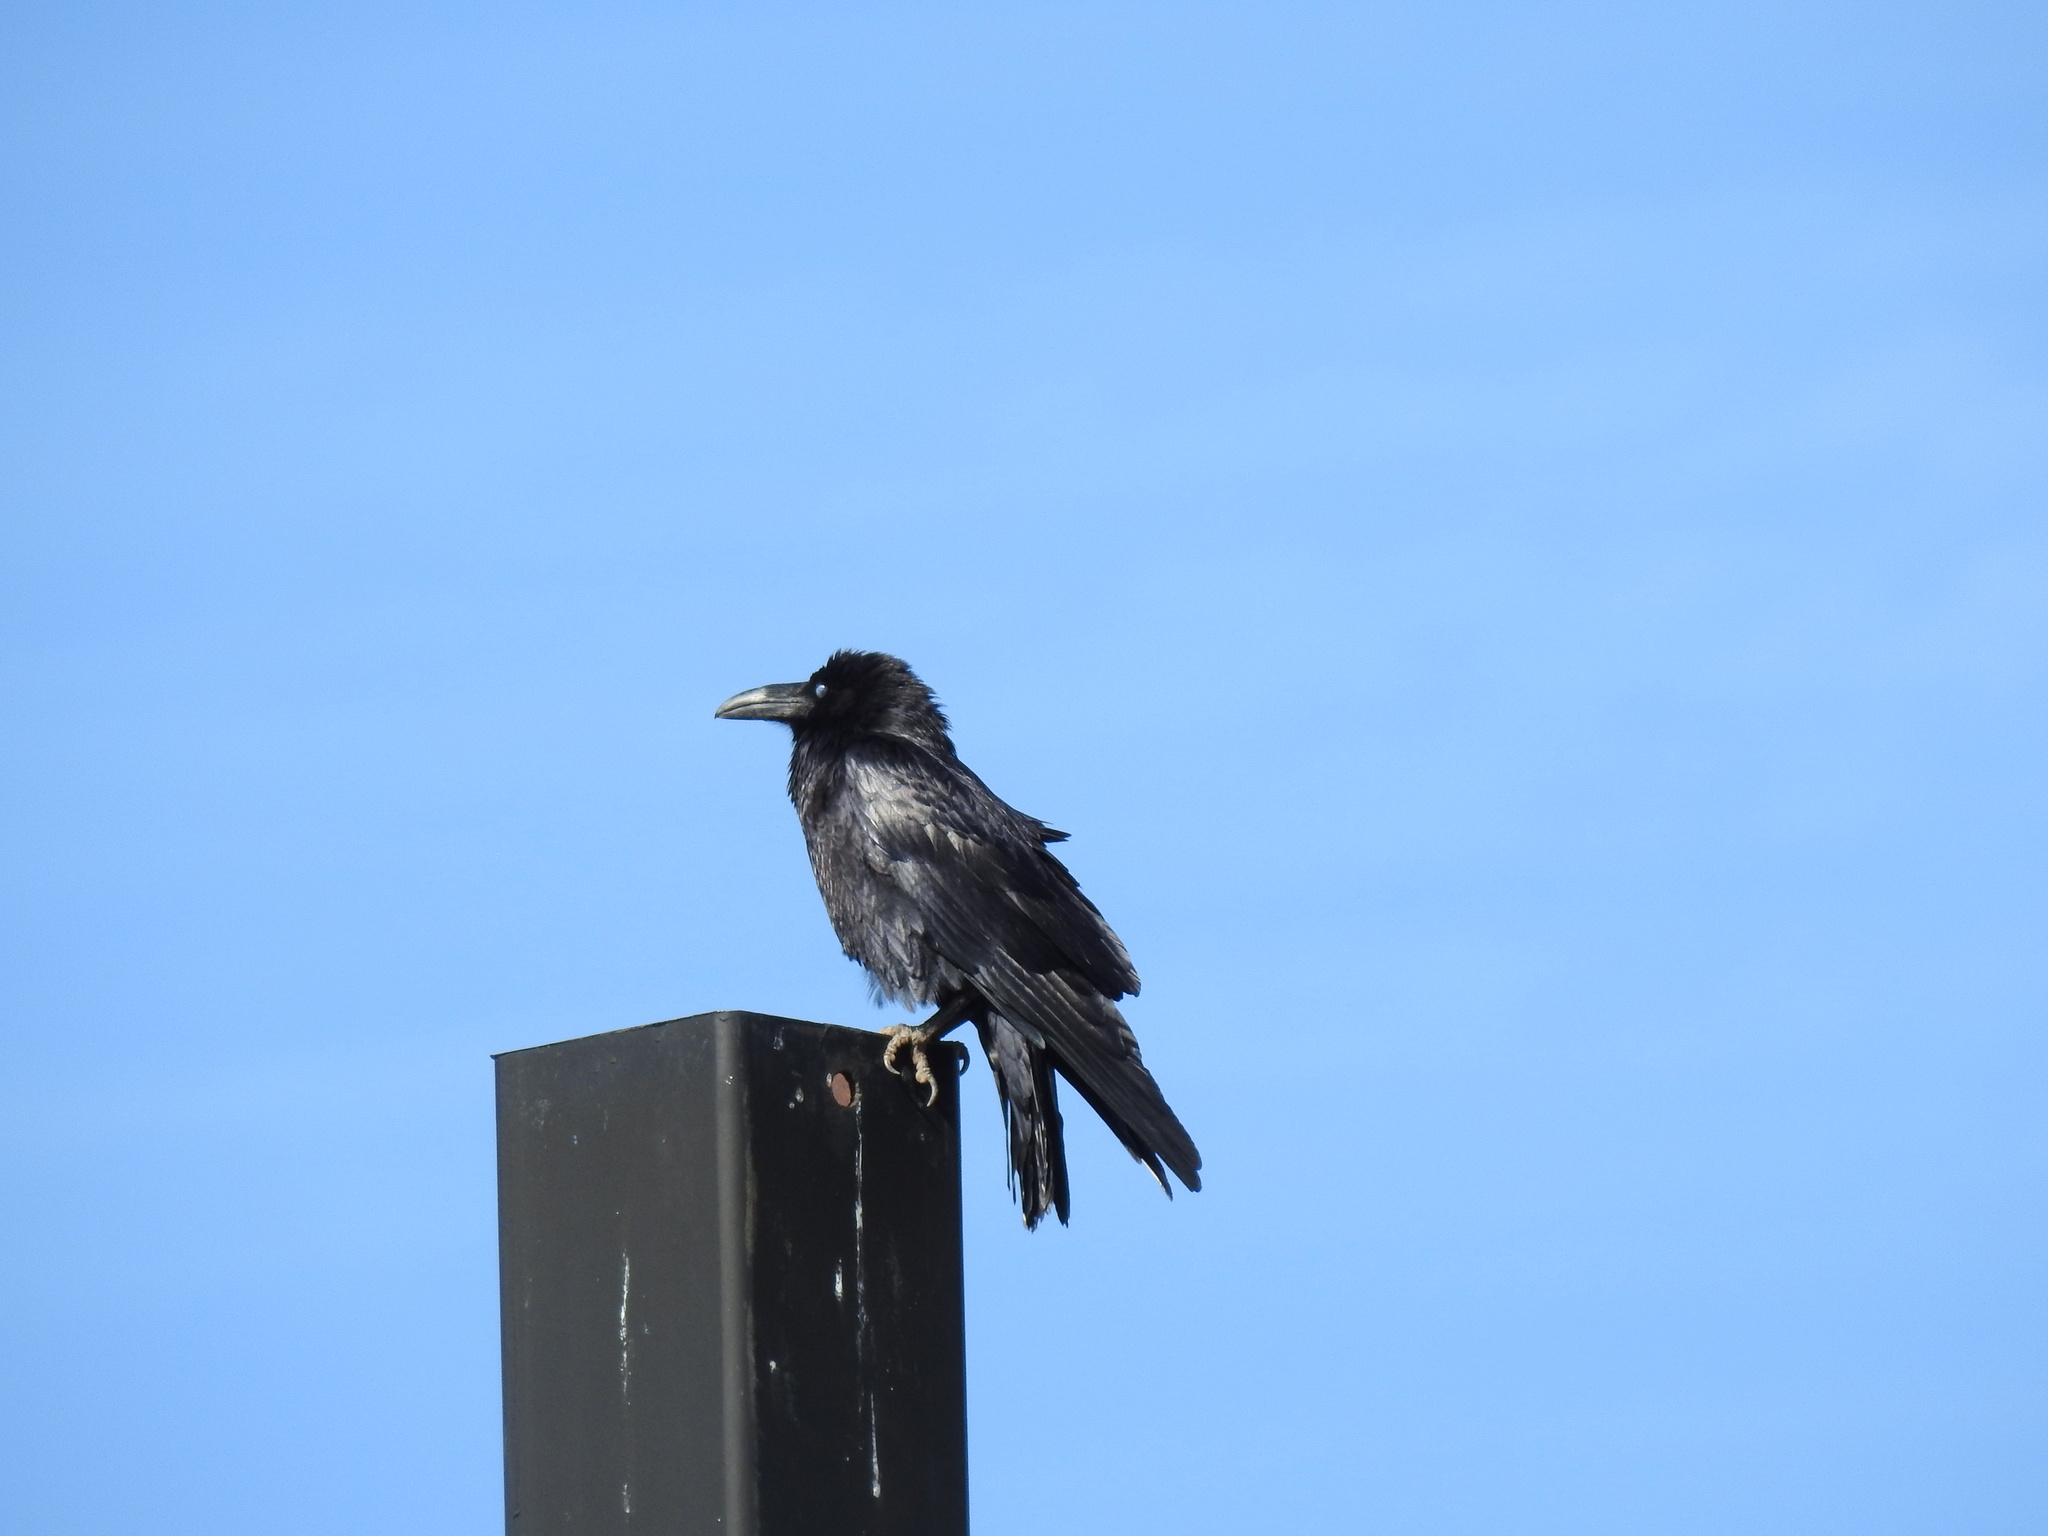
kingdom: Animalia
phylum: Chordata
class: Aves
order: Passeriformes
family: Corvidae
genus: Corvus
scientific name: Corvus corax
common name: Common raven
